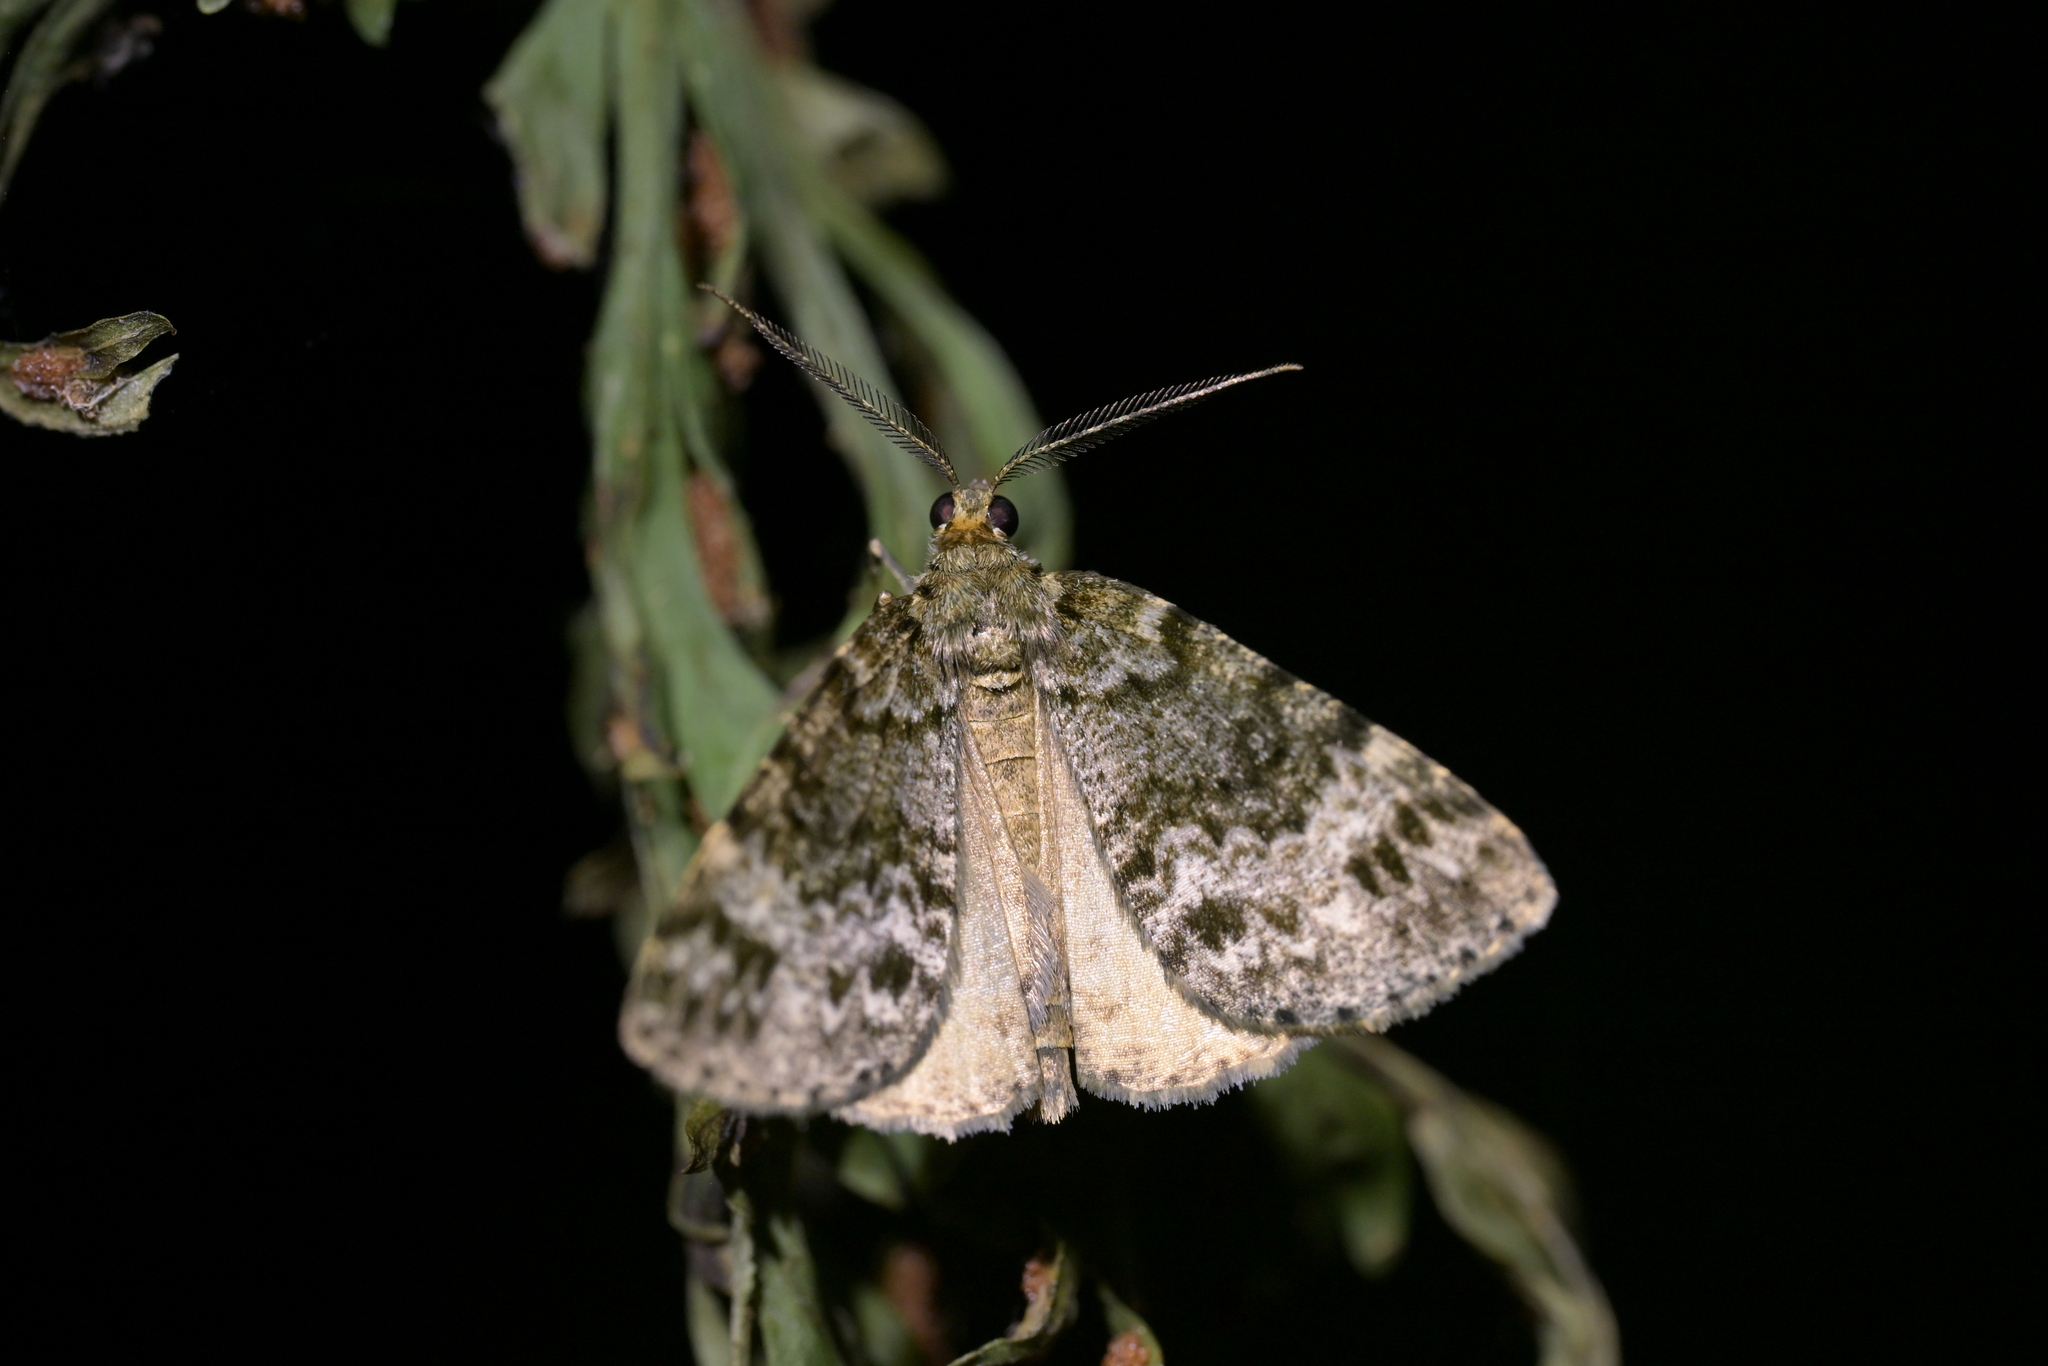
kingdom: Animalia
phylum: Arthropoda
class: Insecta
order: Lepidoptera
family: Geometridae
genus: Pseudocoremia
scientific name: Pseudocoremia indistincta
